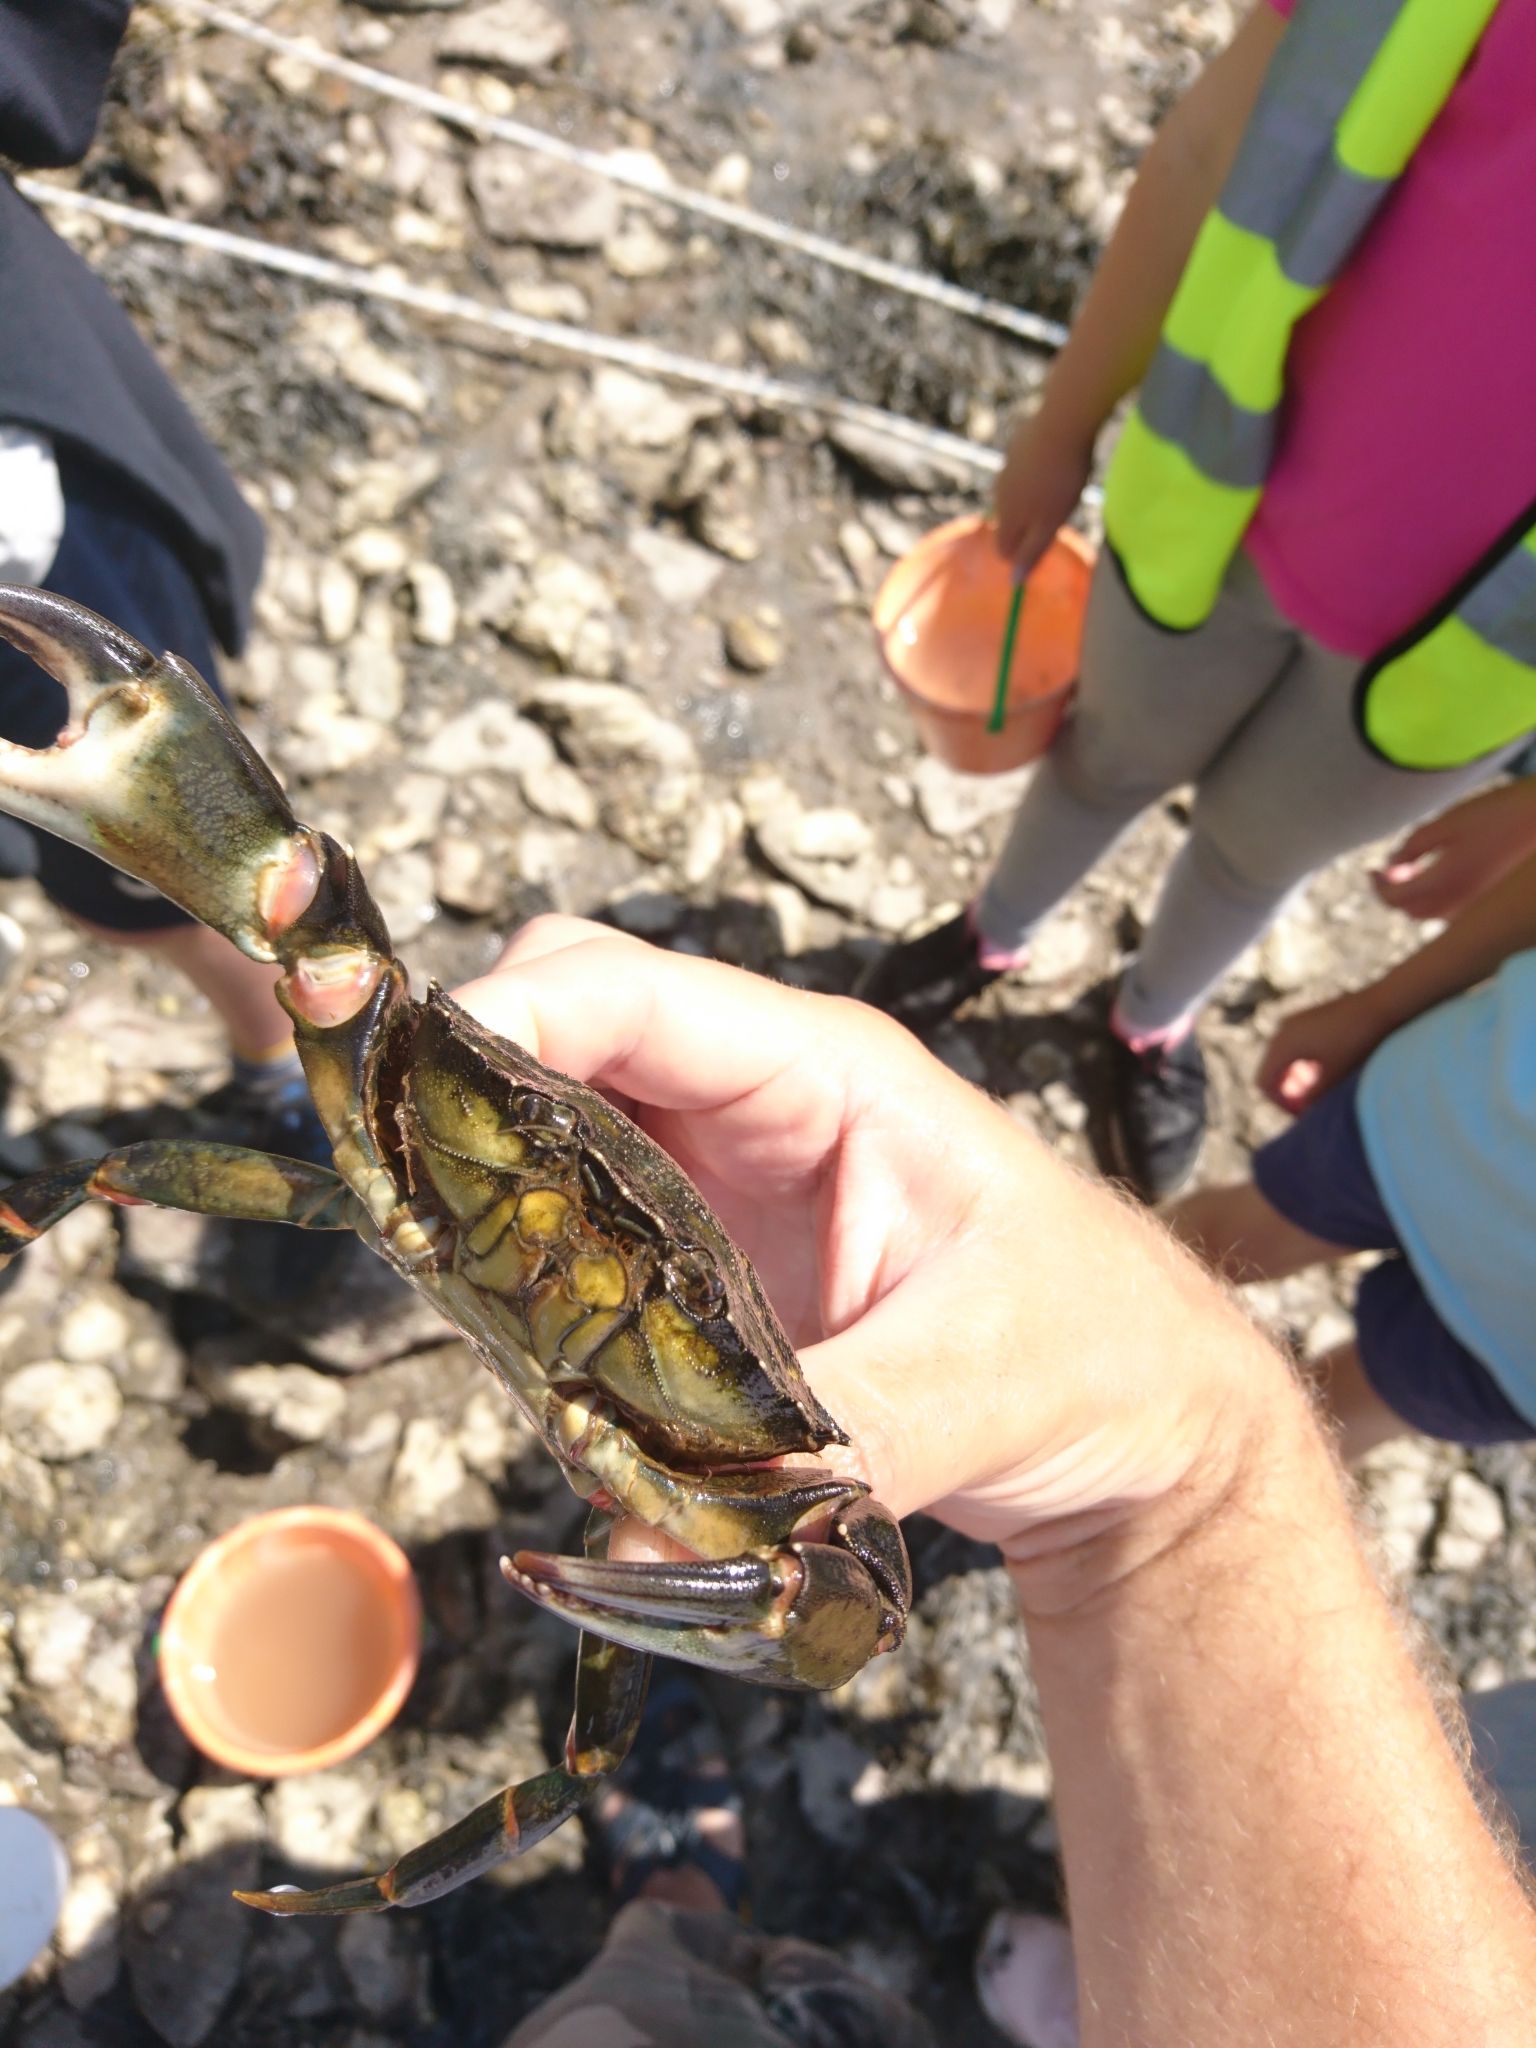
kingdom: Animalia
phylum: Arthropoda
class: Malacostraca
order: Decapoda
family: Carcinidae
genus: Carcinus
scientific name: Carcinus maenas
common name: European green crab
